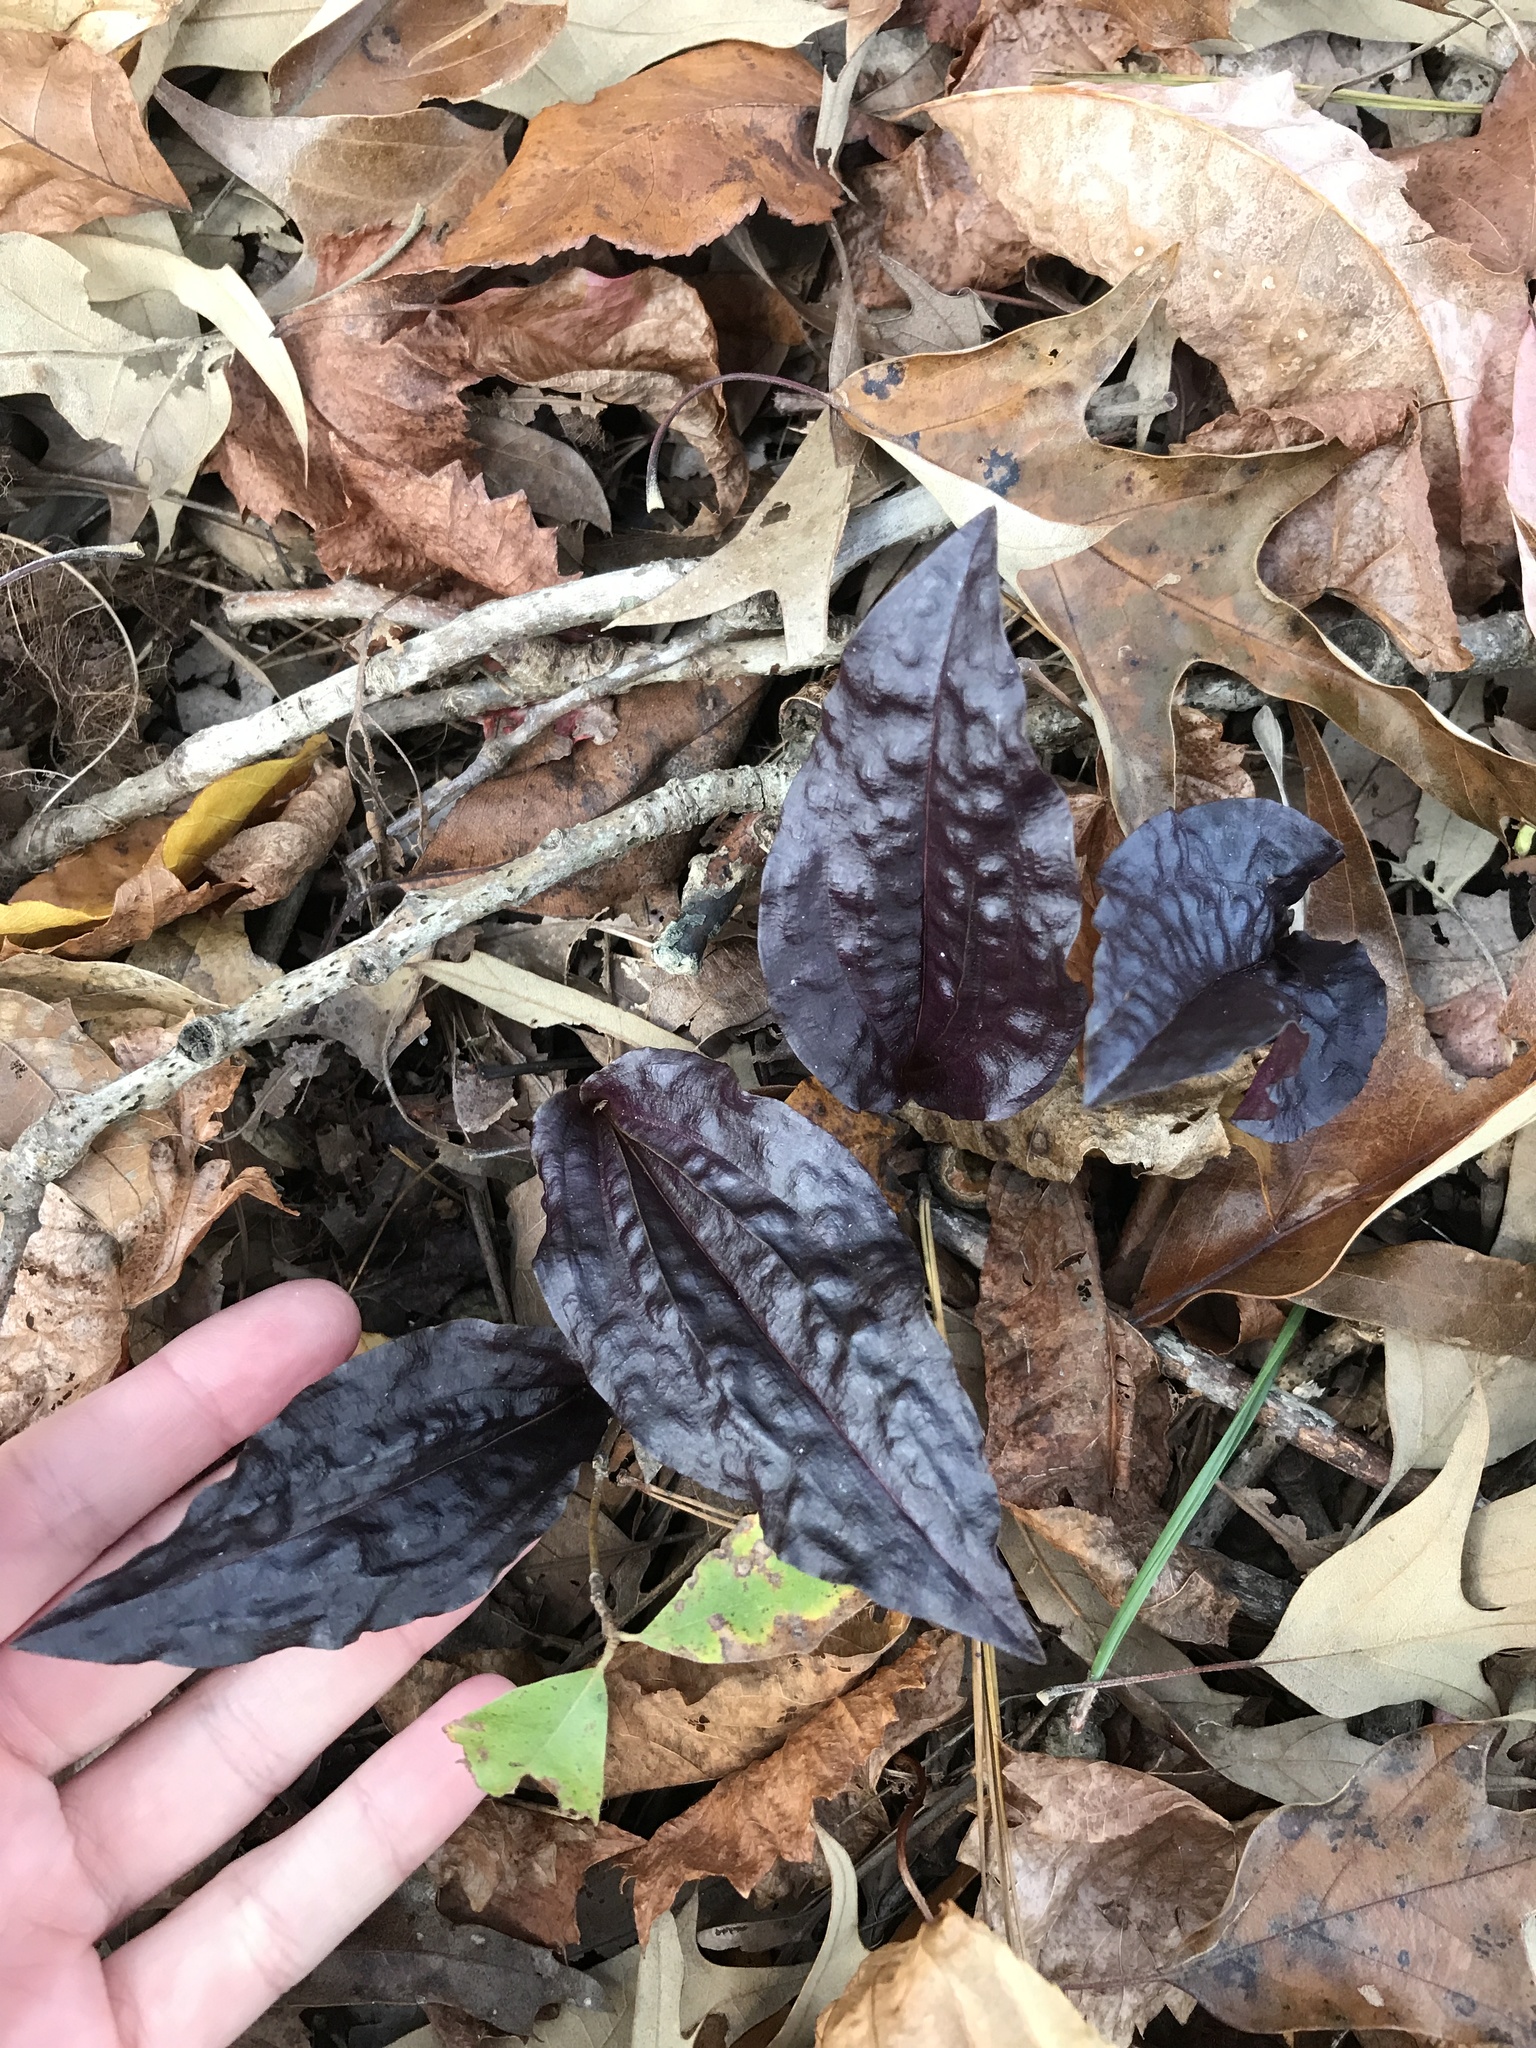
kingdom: Plantae
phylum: Tracheophyta
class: Liliopsida
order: Asparagales
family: Orchidaceae
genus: Tipularia
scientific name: Tipularia discolor
